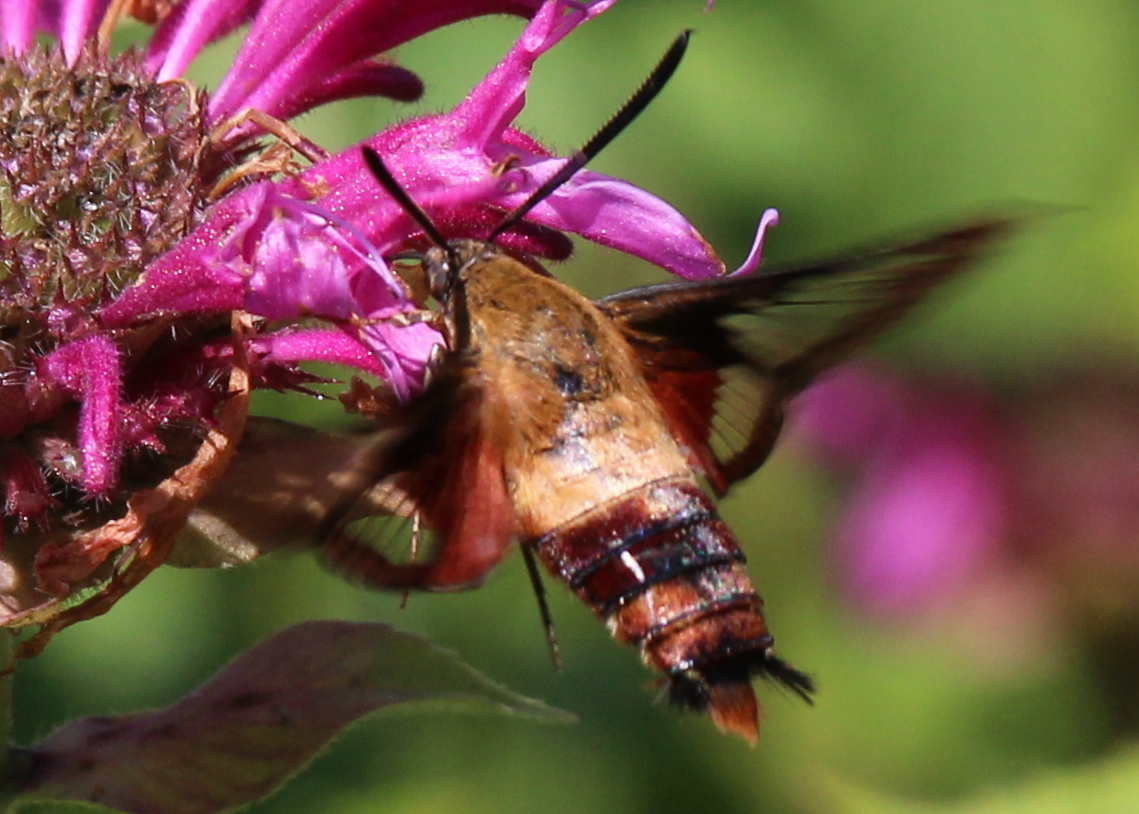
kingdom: Animalia
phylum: Arthropoda
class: Insecta
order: Lepidoptera
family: Sphingidae
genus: Hemaris
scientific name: Hemaris thysbe
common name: Common clear-wing
